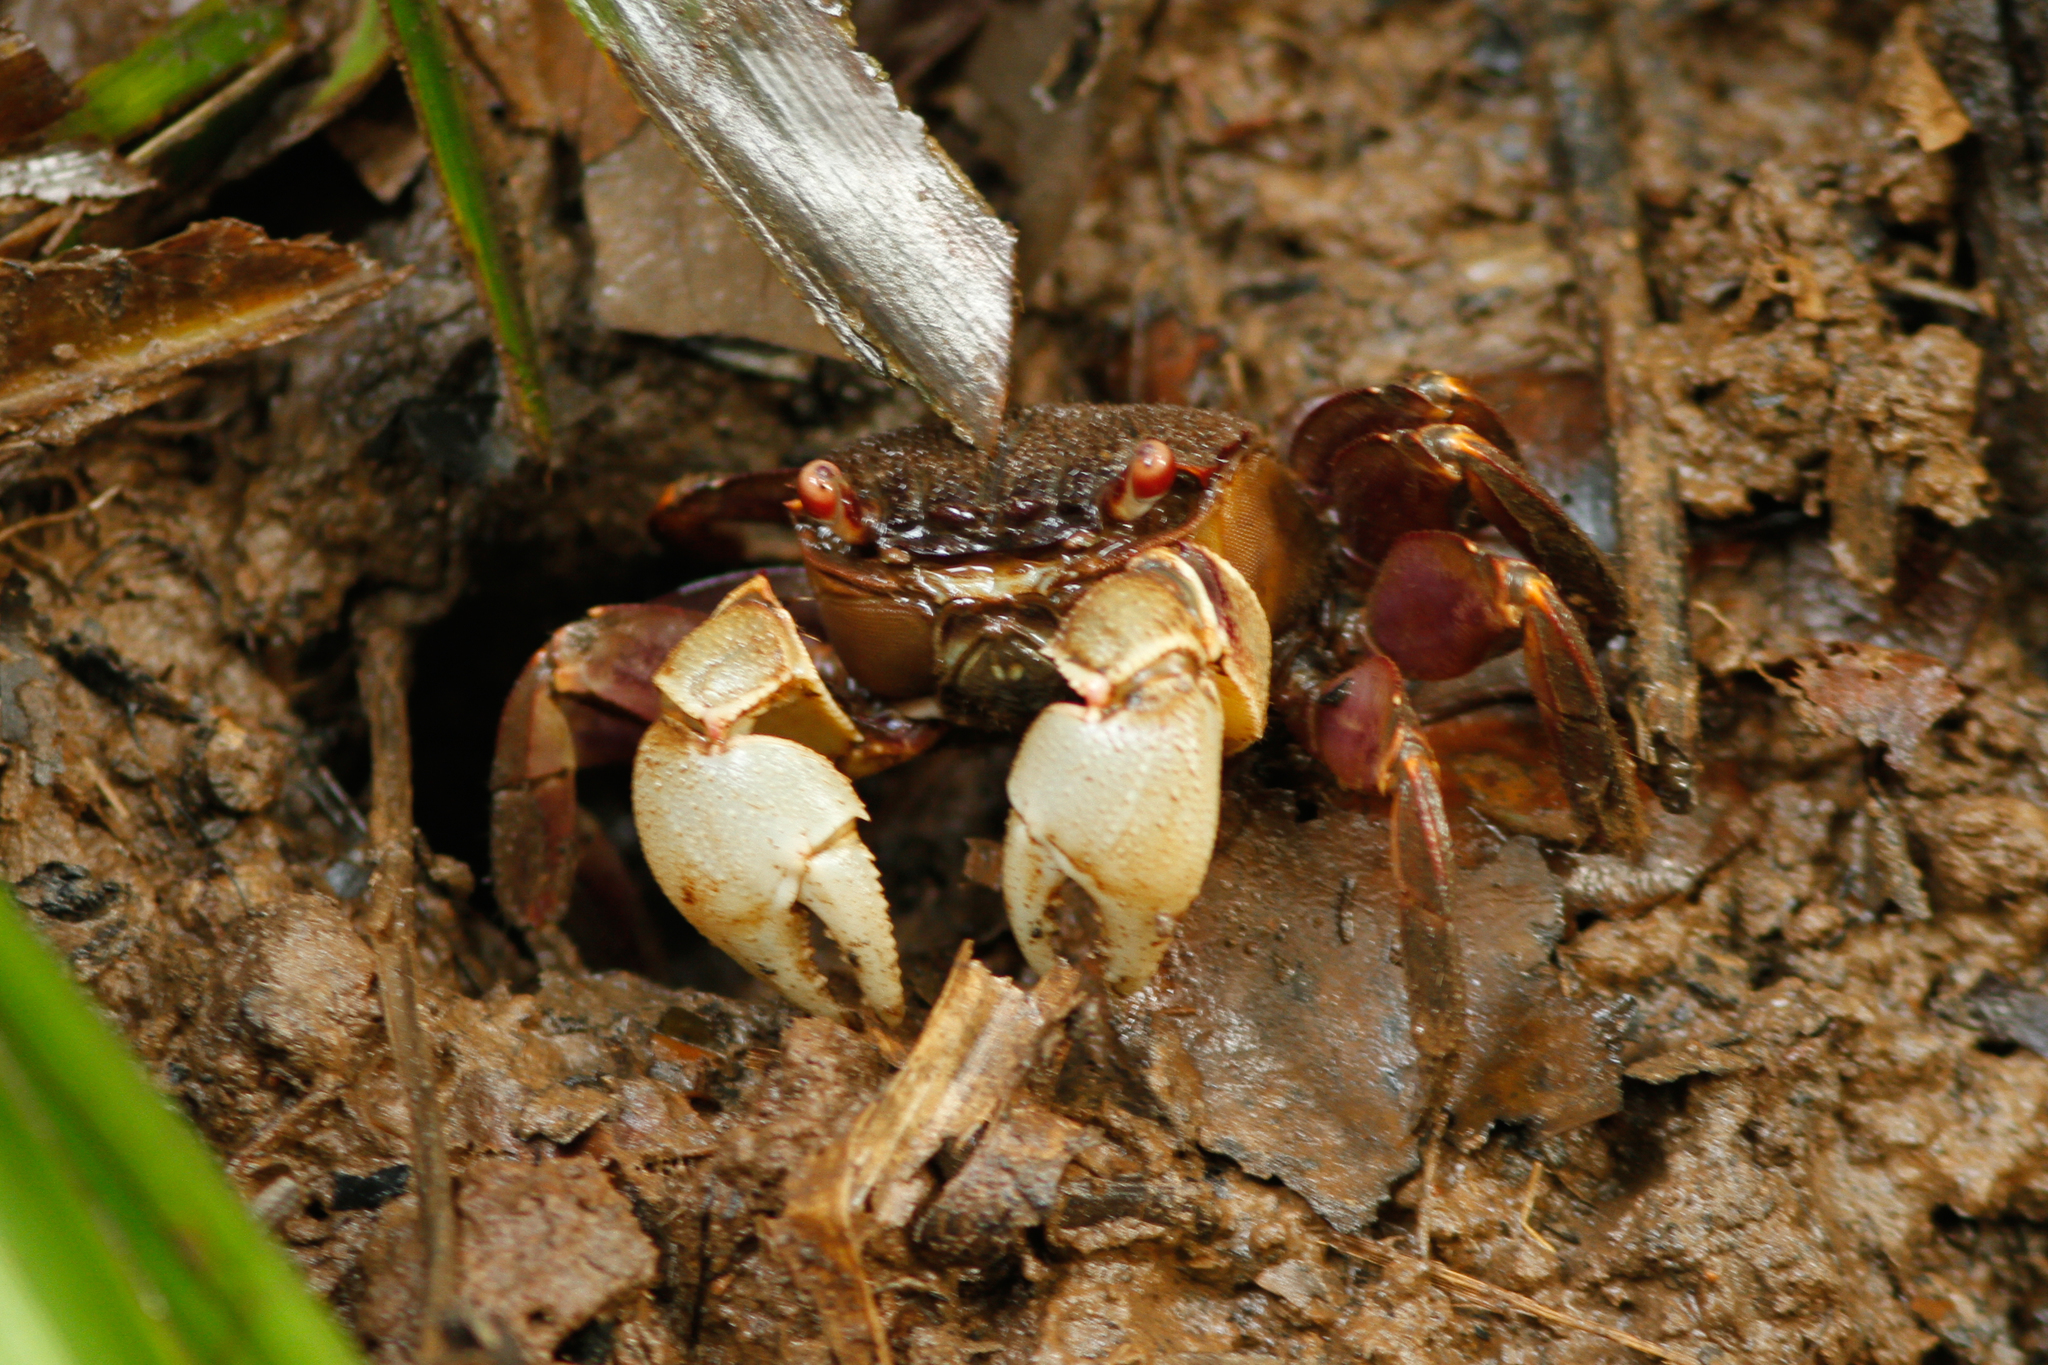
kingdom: Animalia
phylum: Arthropoda
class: Malacostraca
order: Decapoda
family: Sesarmidae
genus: Tiomanium
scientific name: Tiomanium indicum
